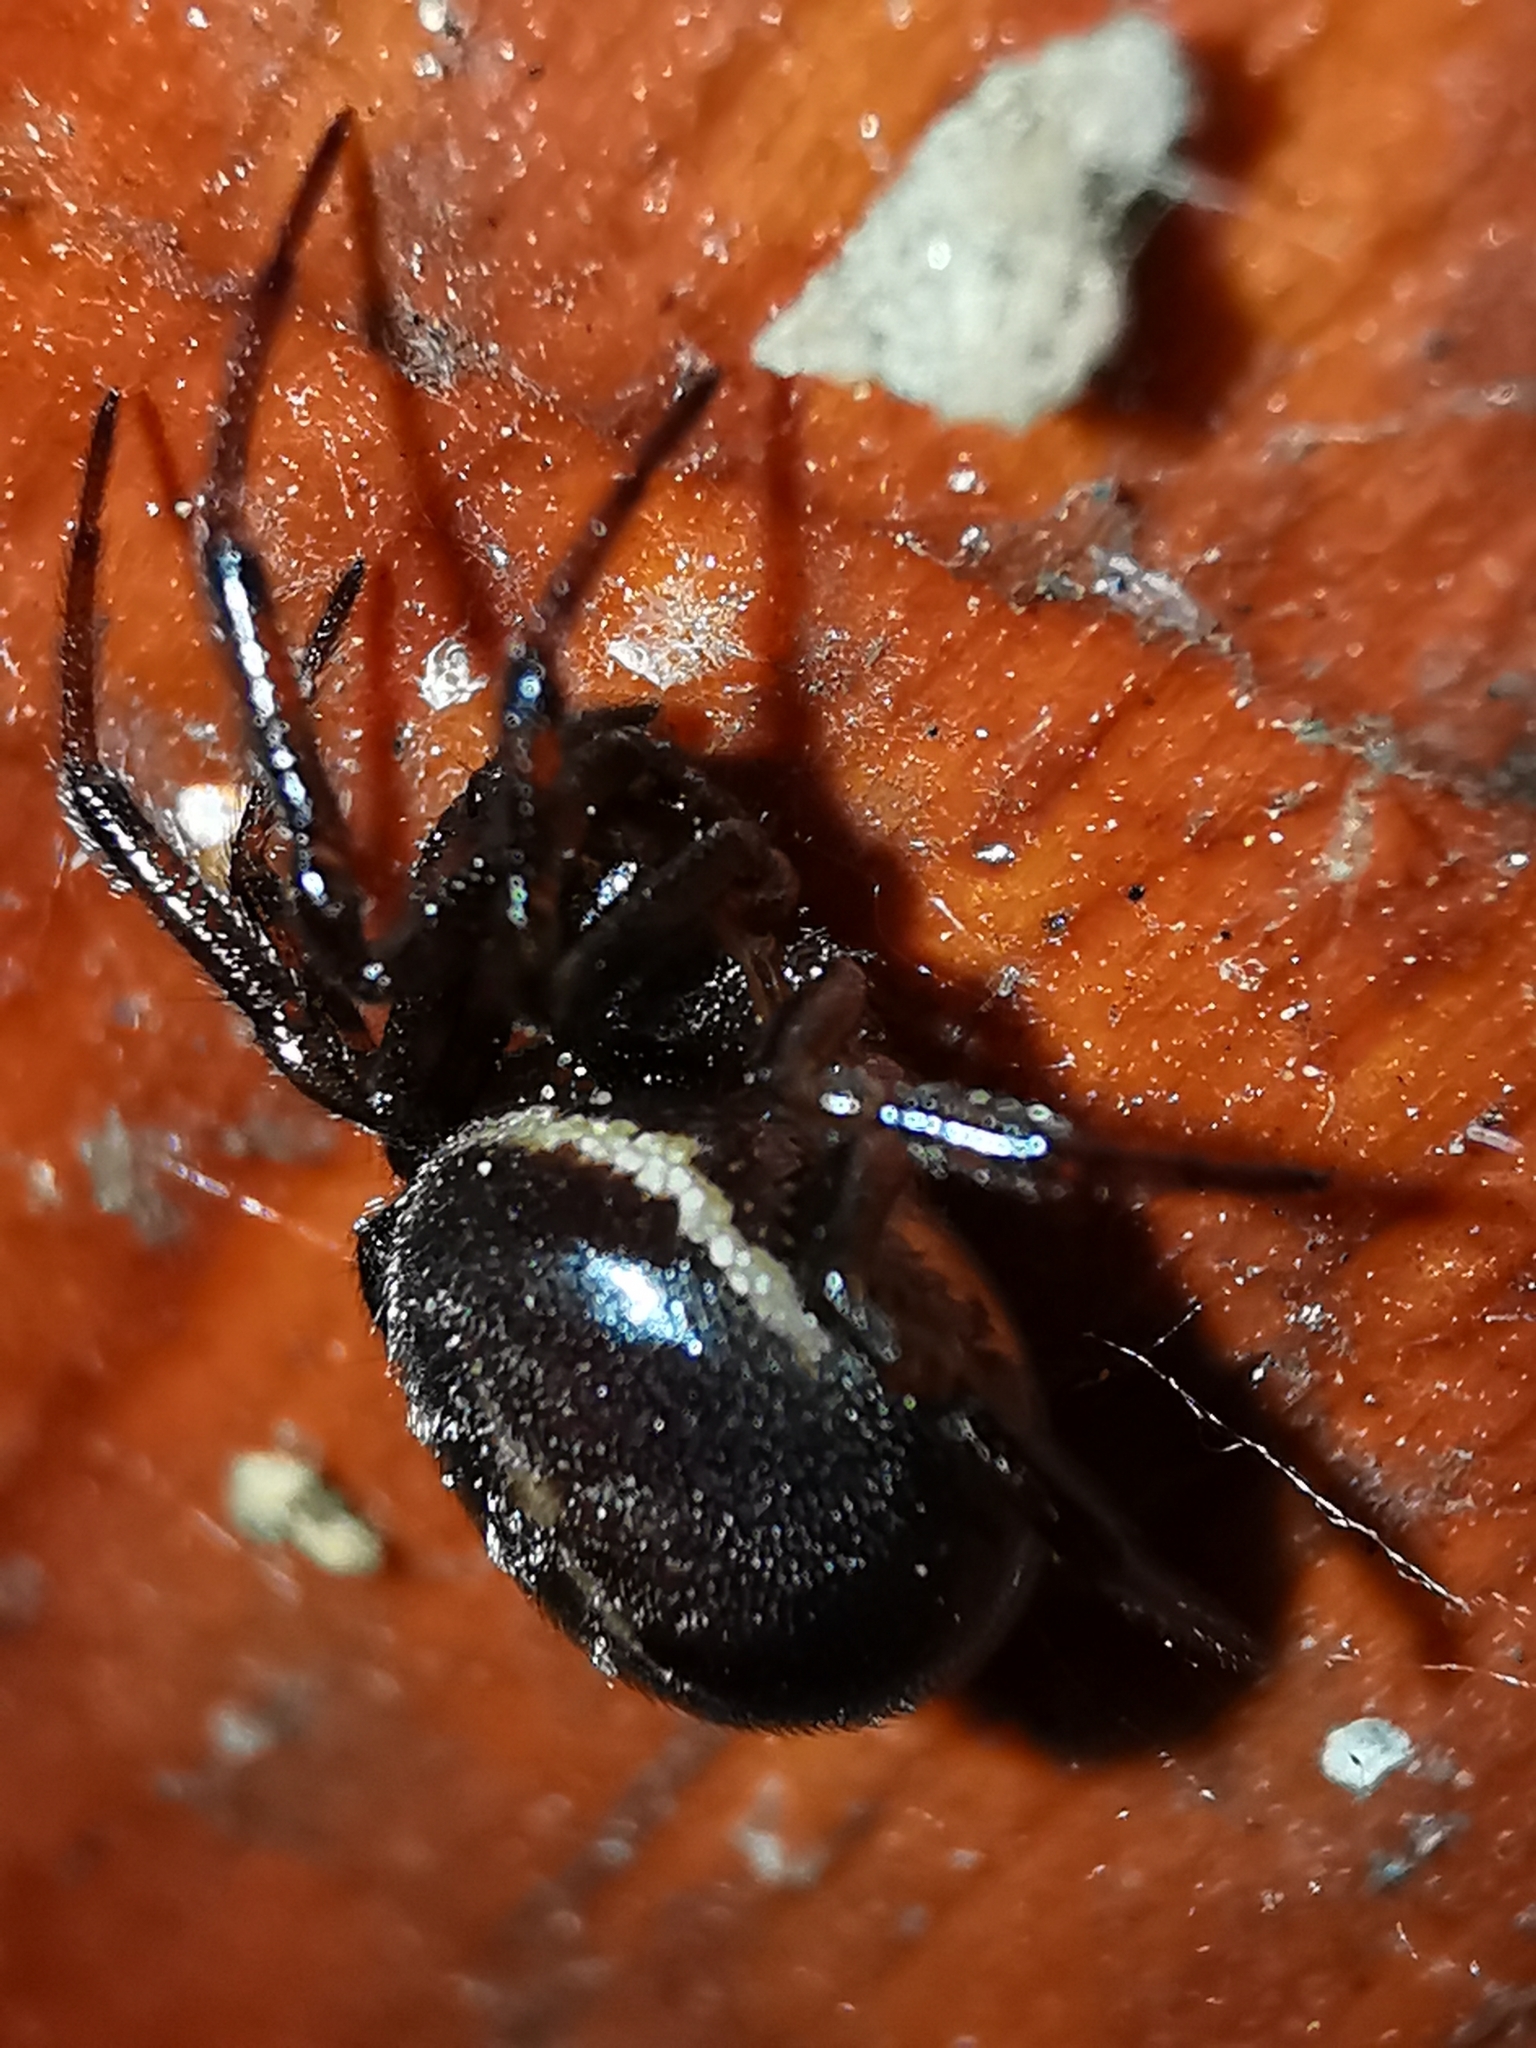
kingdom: Animalia
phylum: Arthropoda
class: Arachnida
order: Araneae
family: Theridiidae
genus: Steatoda
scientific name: Steatoda bipunctata
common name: False widow
